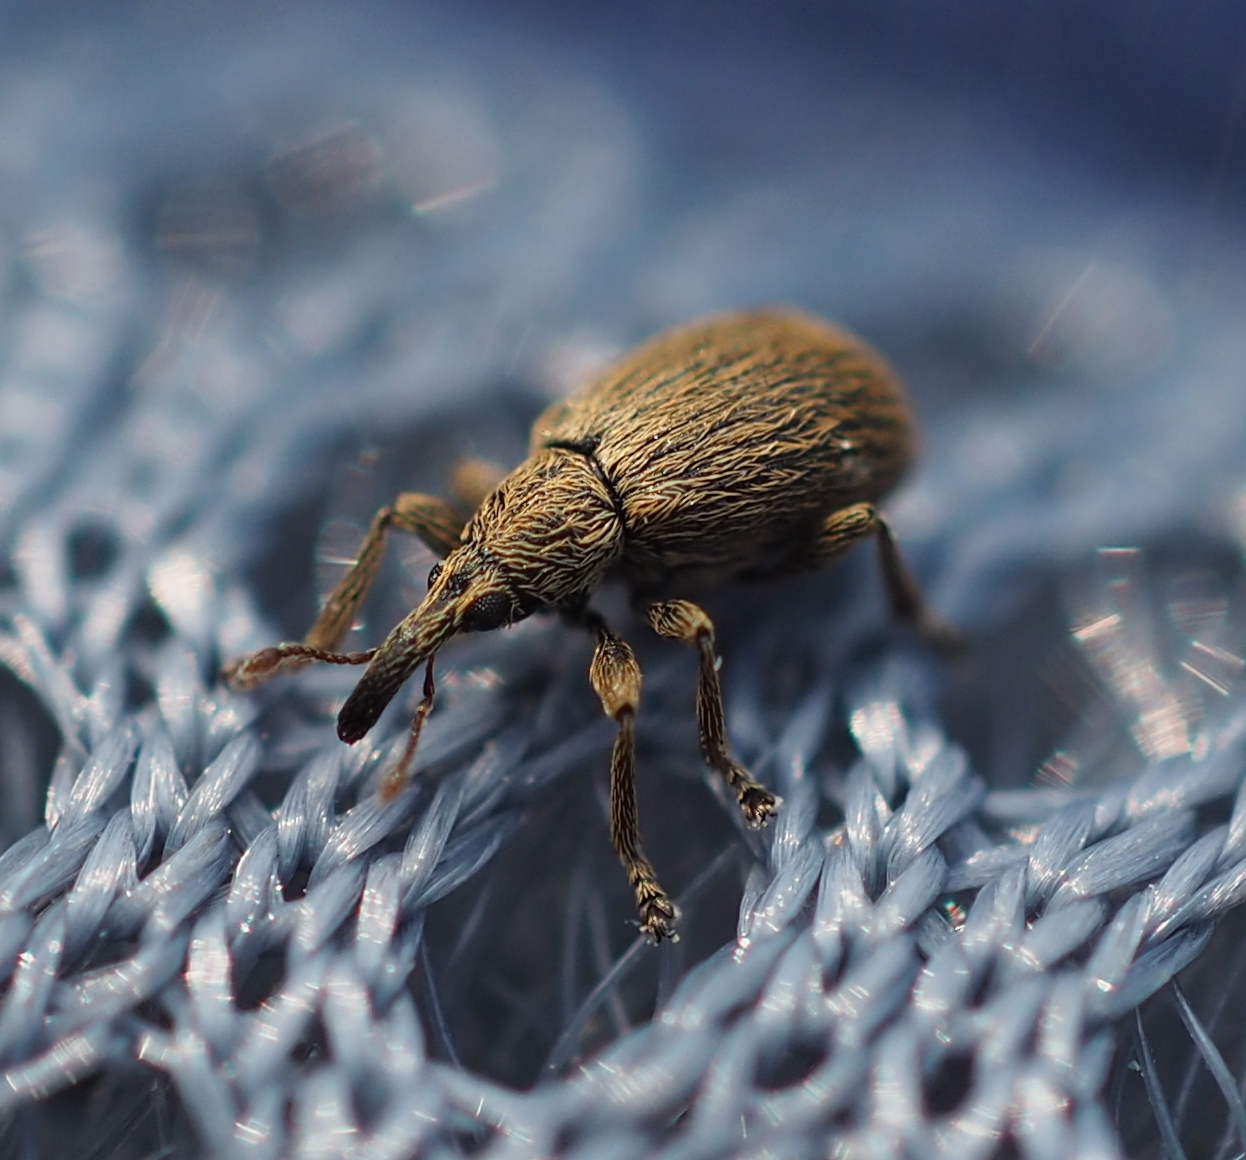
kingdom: Animalia
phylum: Arthropoda
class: Insecta
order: Coleoptera
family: Apionidae
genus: Trichopterapion
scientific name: Trichopterapion holosericeum
